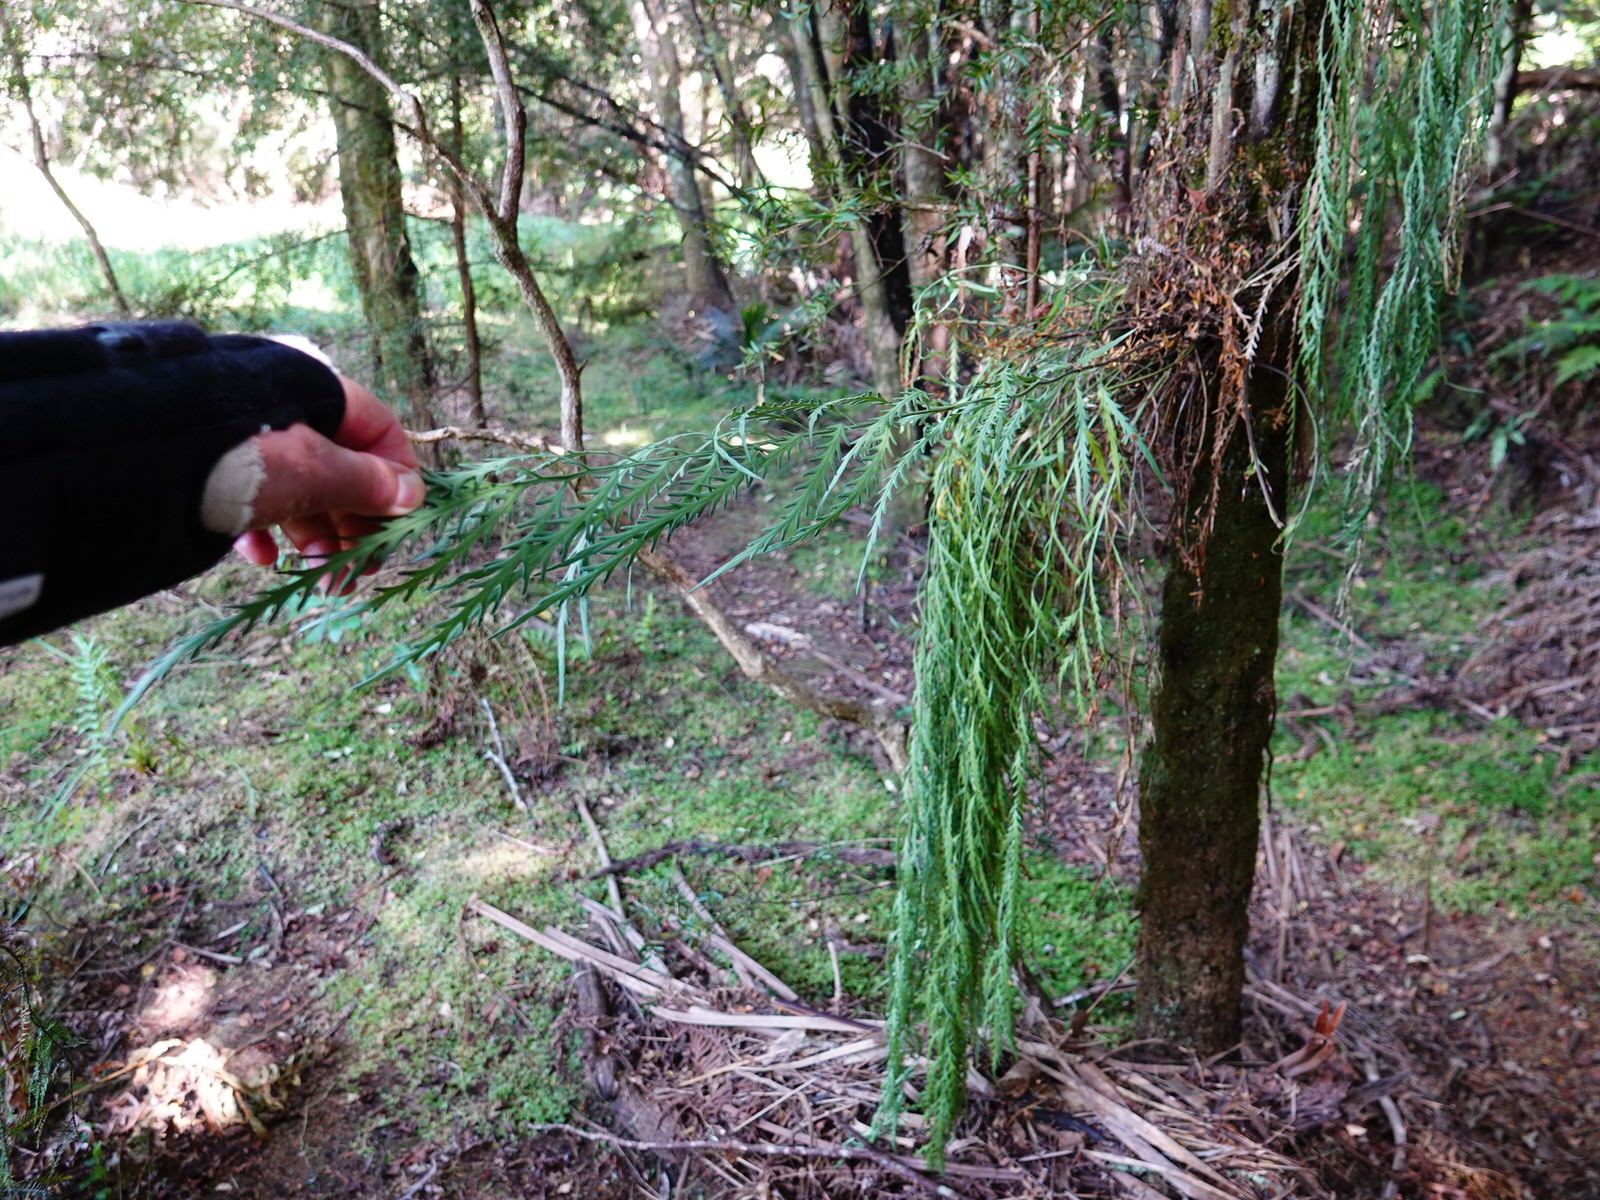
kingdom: Plantae
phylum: Tracheophyta
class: Polypodiopsida
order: Polypodiales
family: Aspleniaceae
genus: Asplenium
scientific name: Asplenium flaccidum
